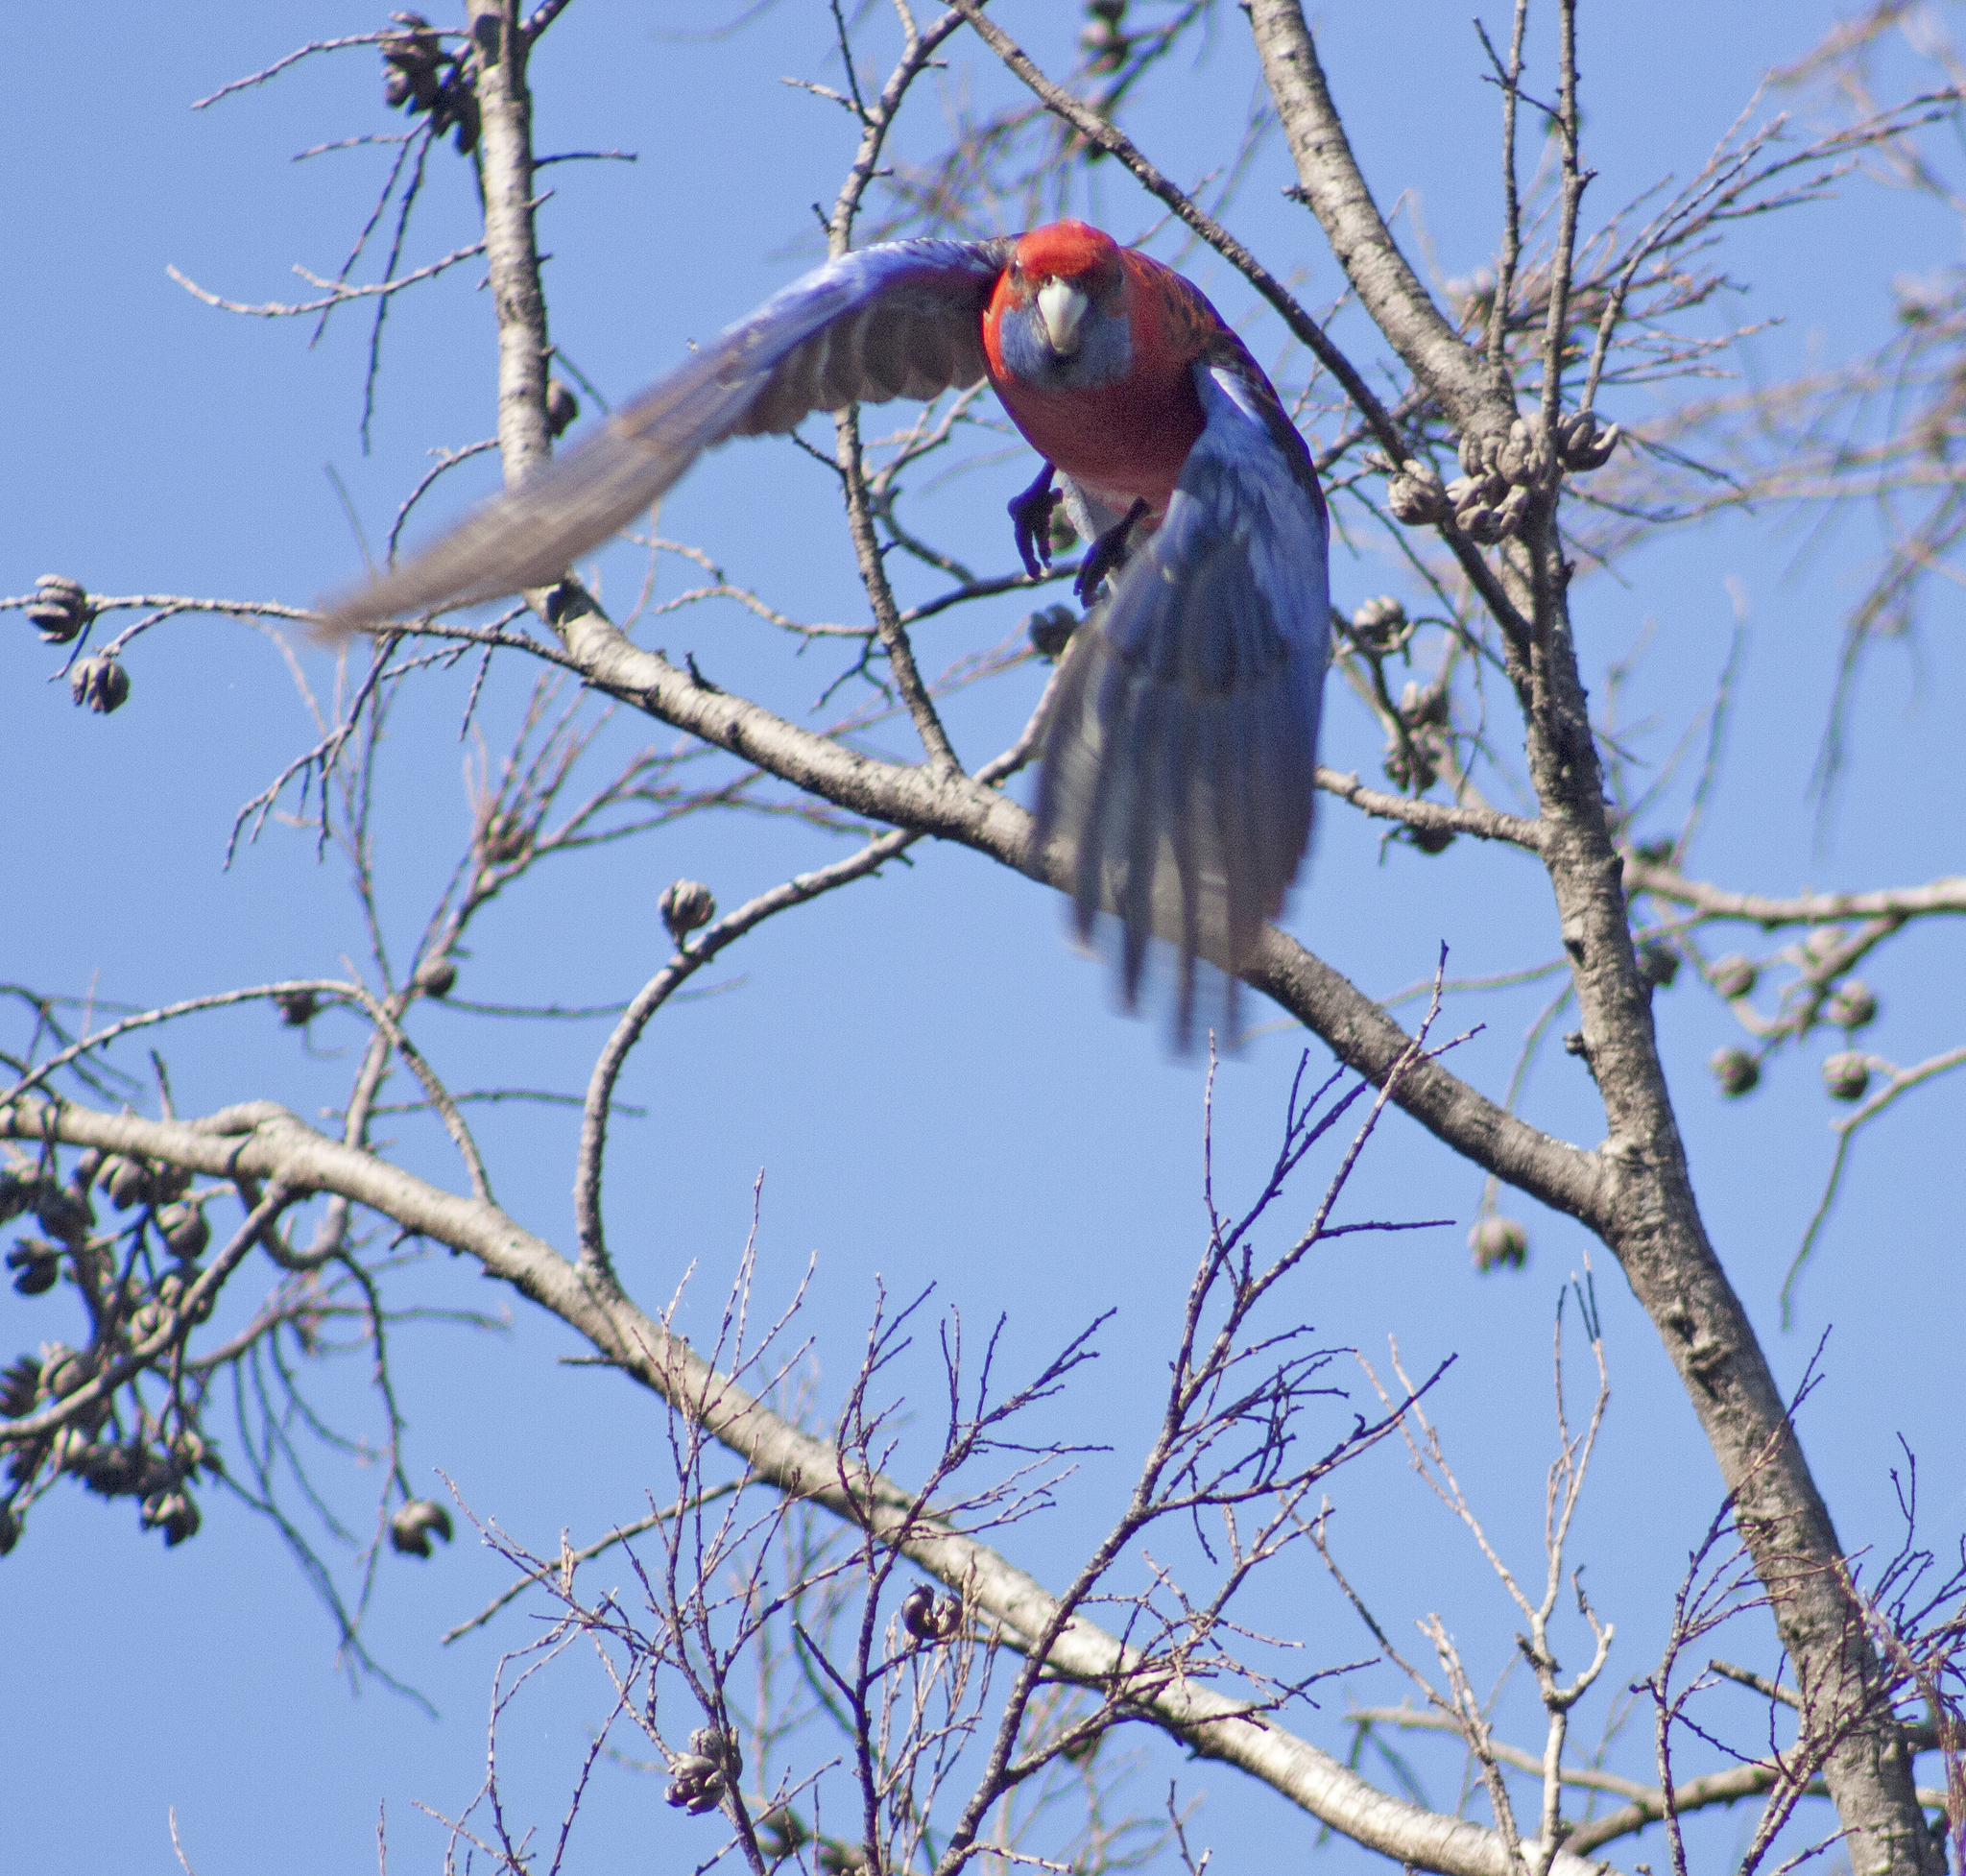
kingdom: Animalia
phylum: Chordata
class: Aves
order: Psittaciformes
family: Psittacidae
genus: Platycercus
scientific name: Platycercus elegans
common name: Crimson rosella
